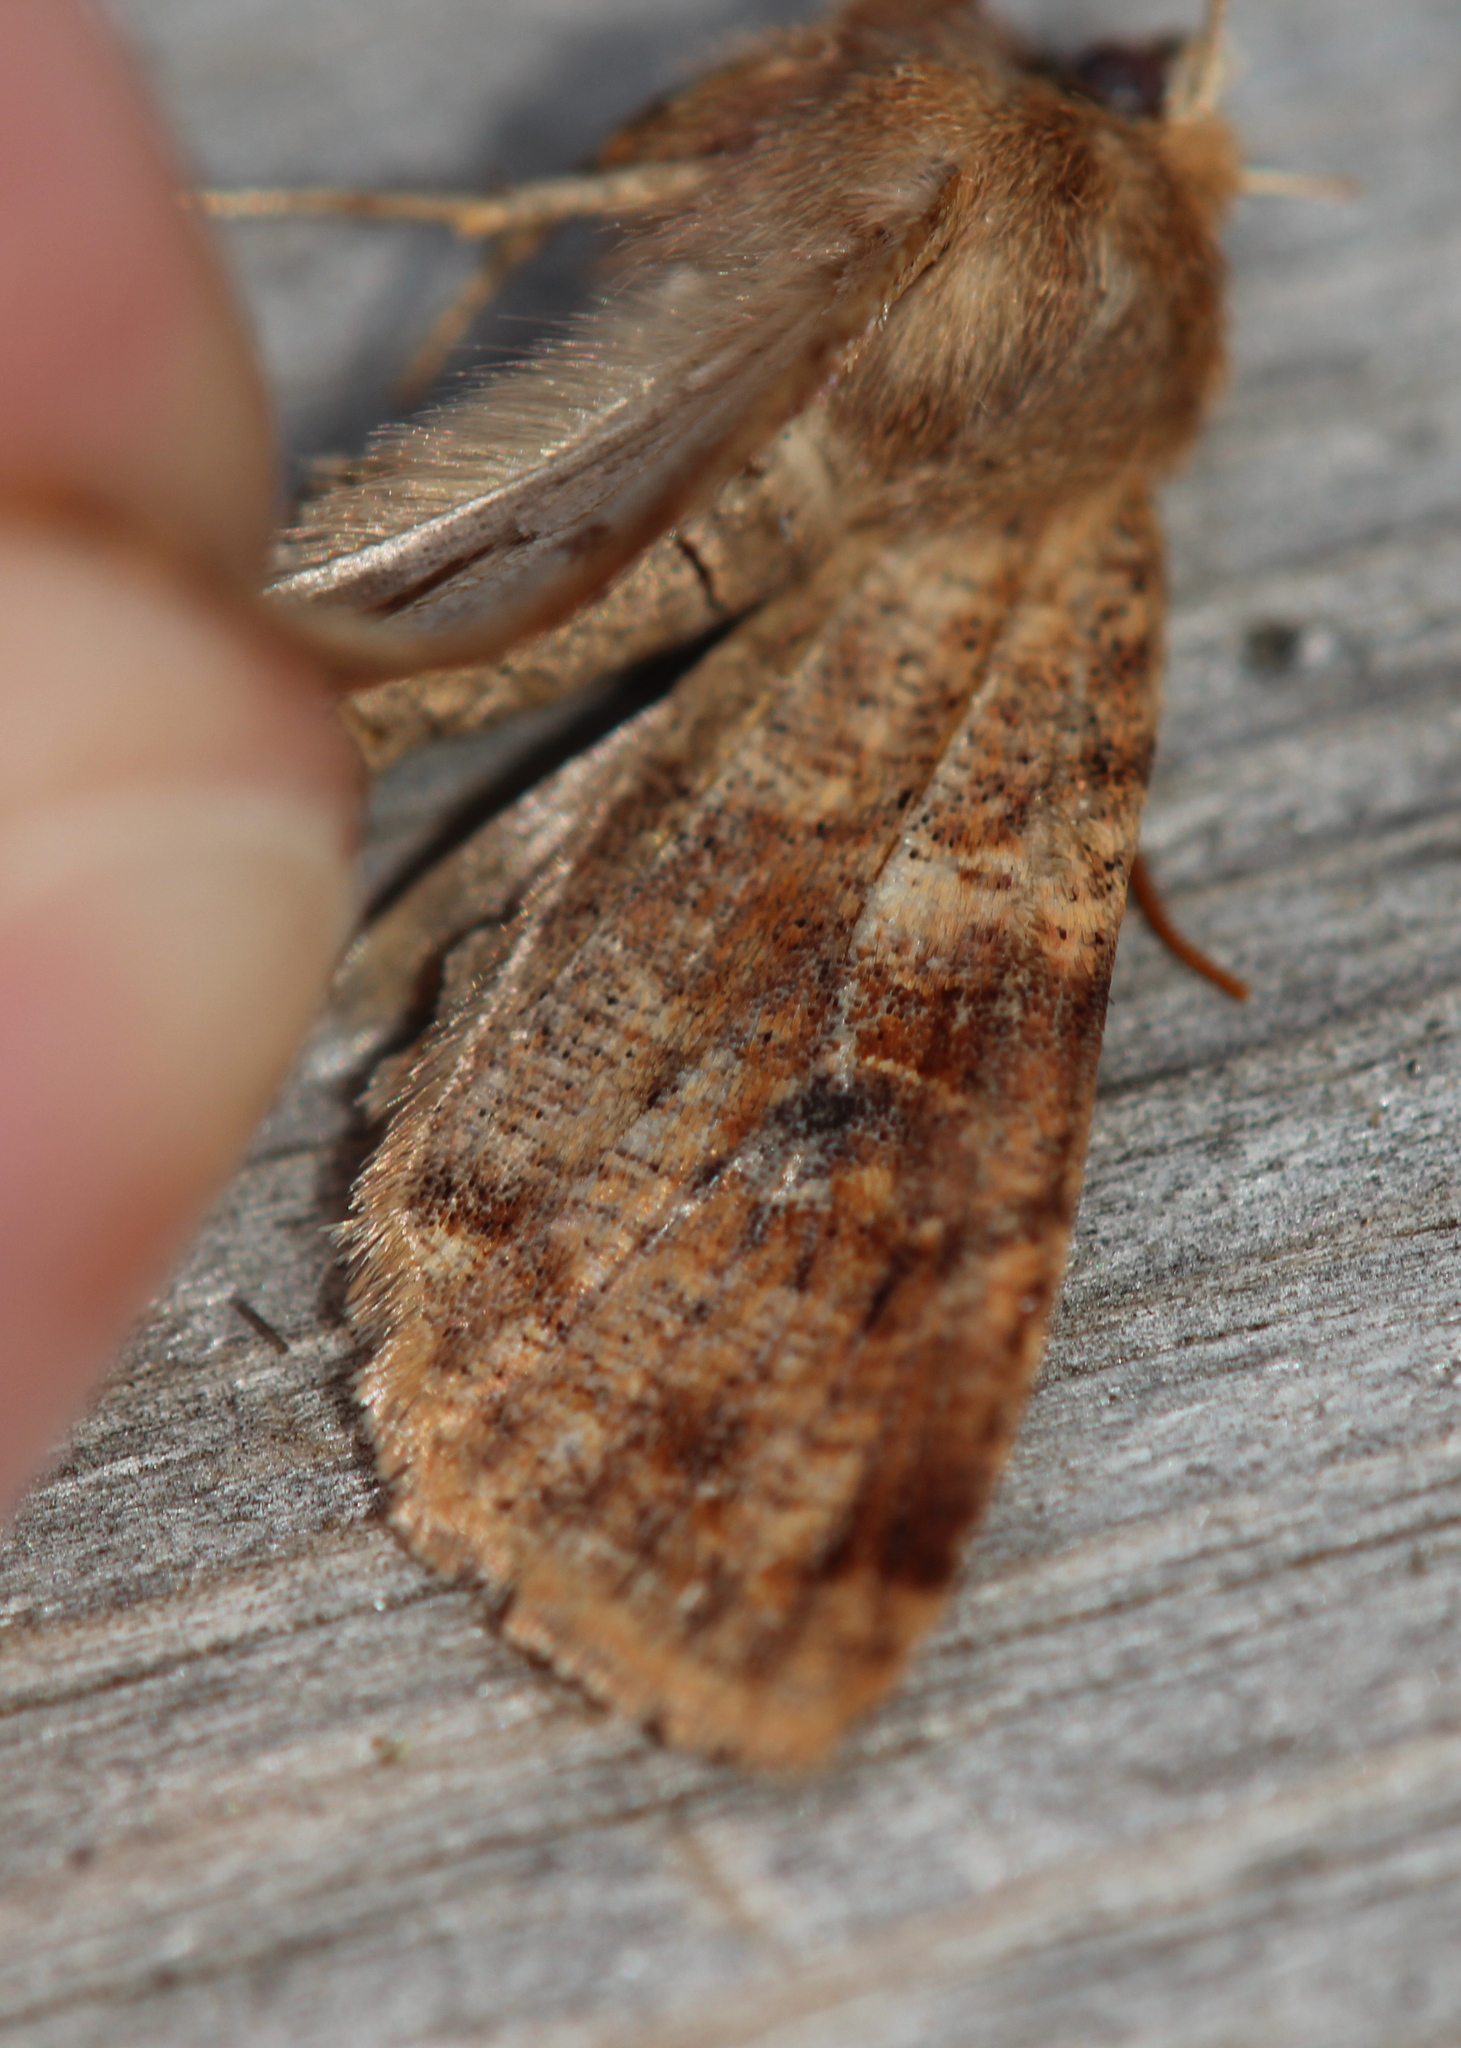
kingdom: Animalia
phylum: Arthropoda
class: Insecta
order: Lepidoptera
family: Noctuidae
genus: Orthosia
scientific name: Orthosia rubescens
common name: Ruby quaker
